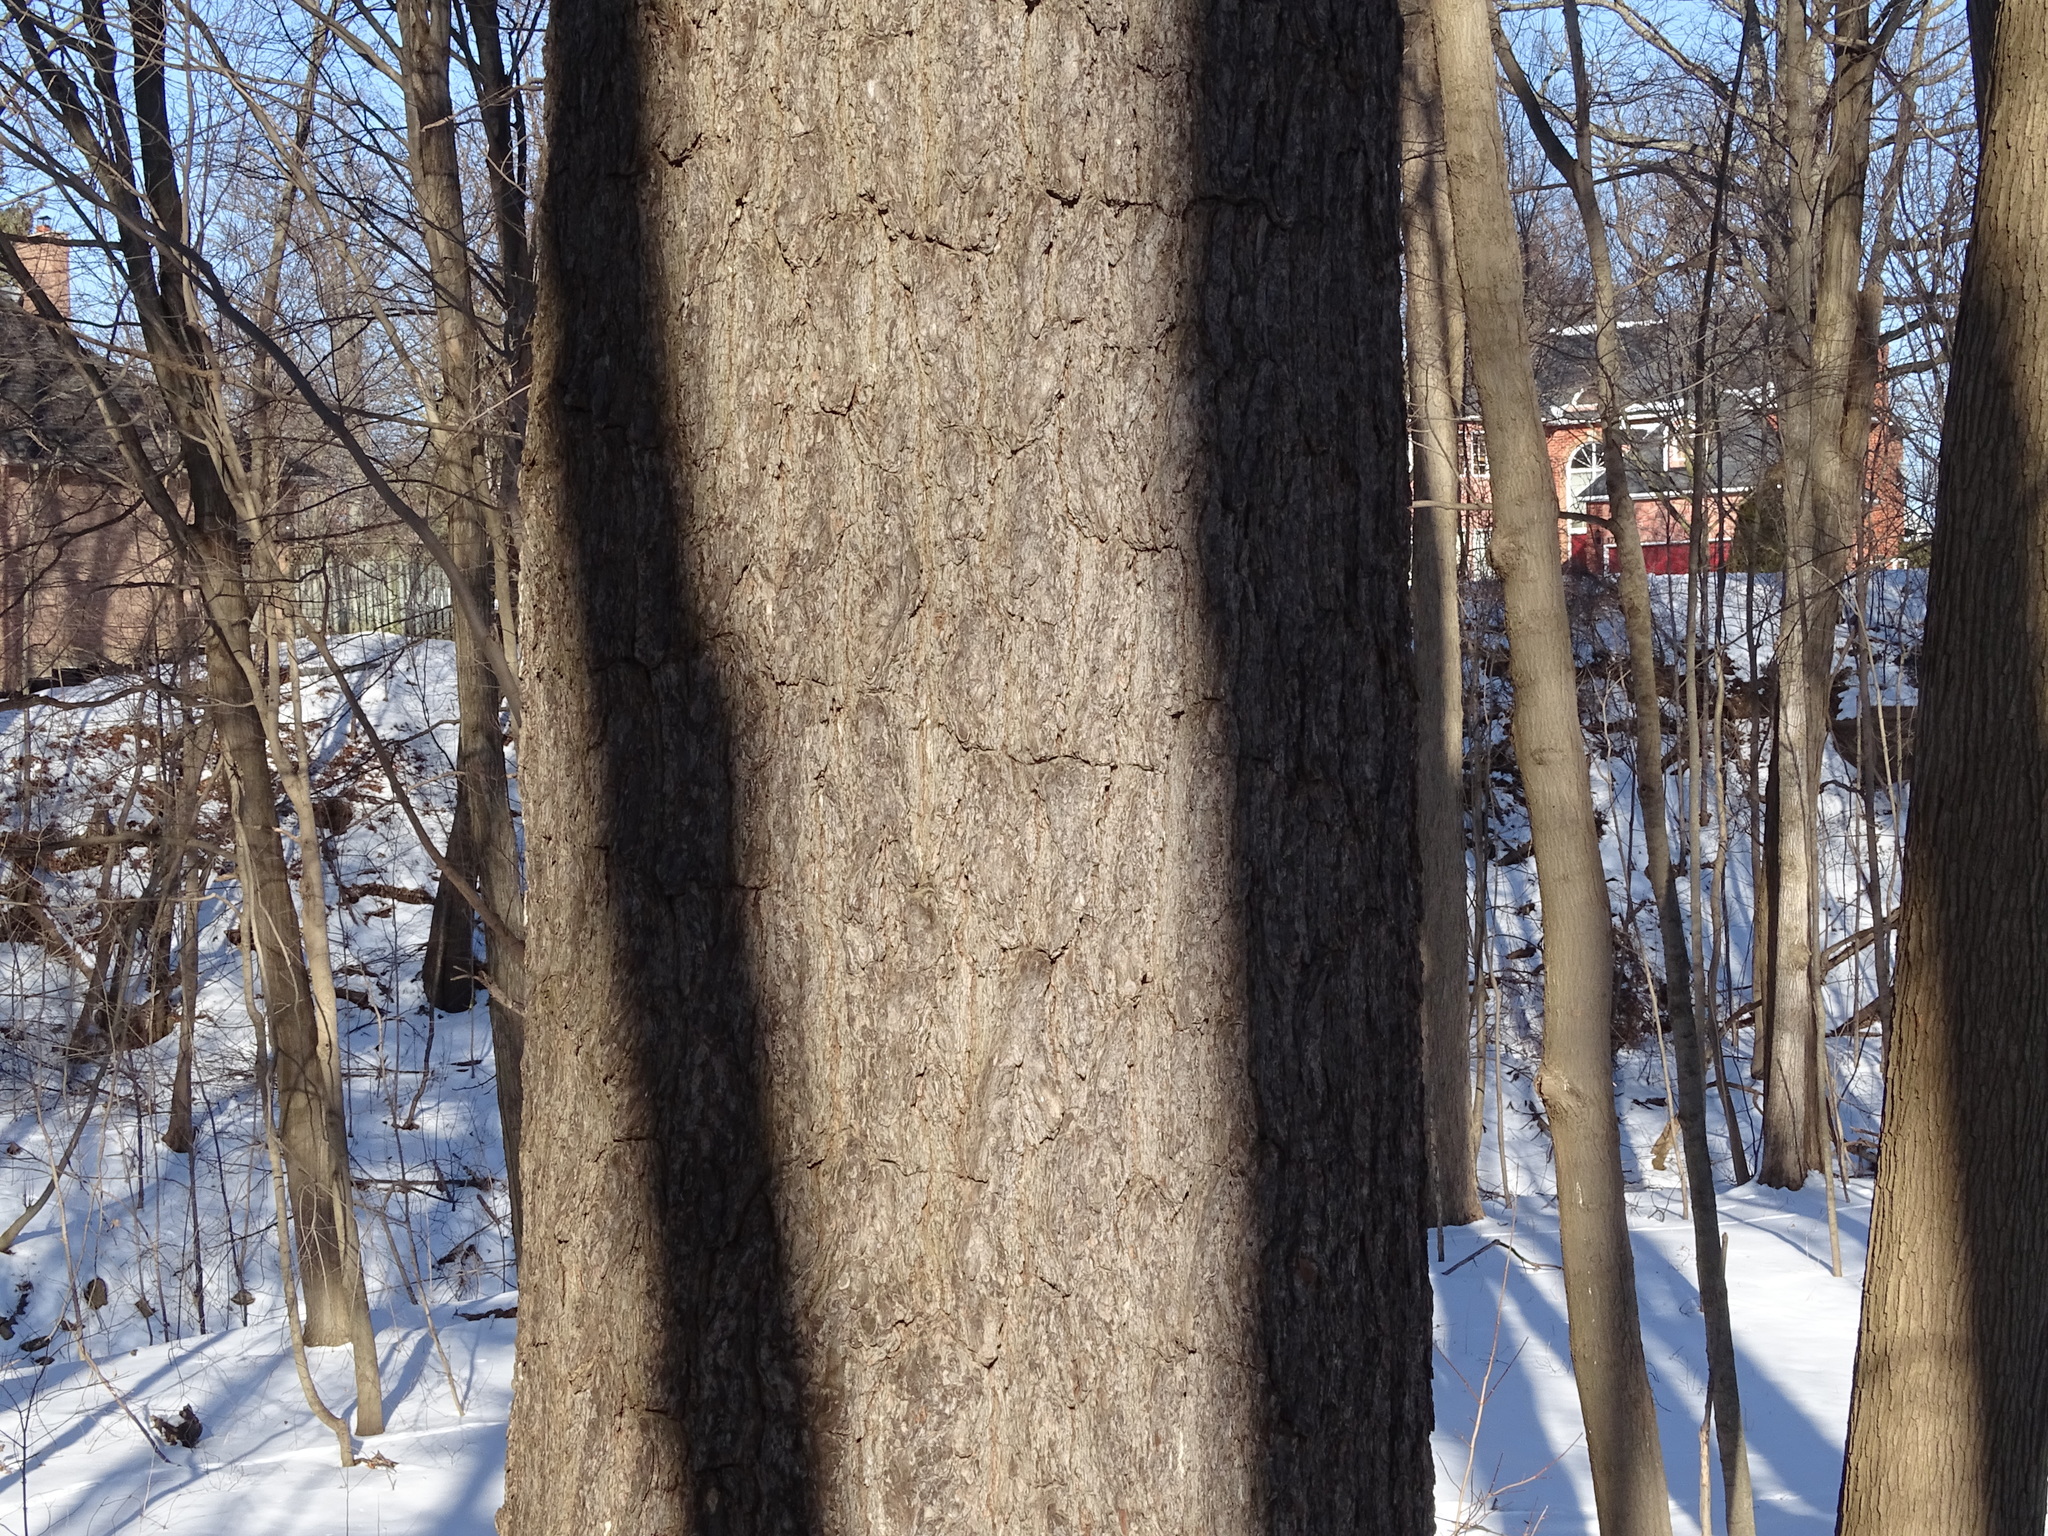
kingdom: Plantae
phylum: Tracheophyta
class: Pinopsida
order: Pinales
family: Pinaceae
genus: Pinus
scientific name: Pinus strobus
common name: Weymouth pine
